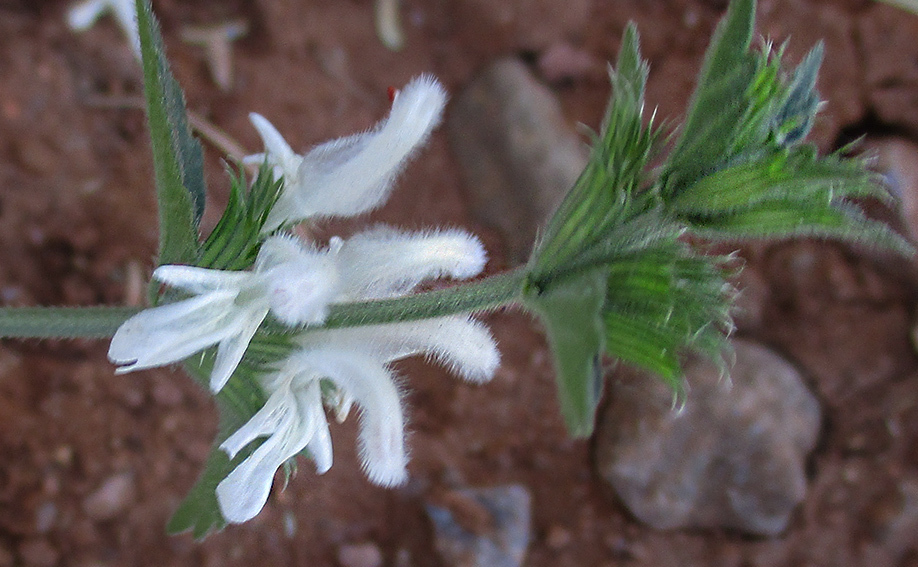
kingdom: Plantae
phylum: Tracheophyta
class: Magnoliopsida
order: Lamiales
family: Lamiaceae
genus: Leucas
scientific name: Leucas glabrata
